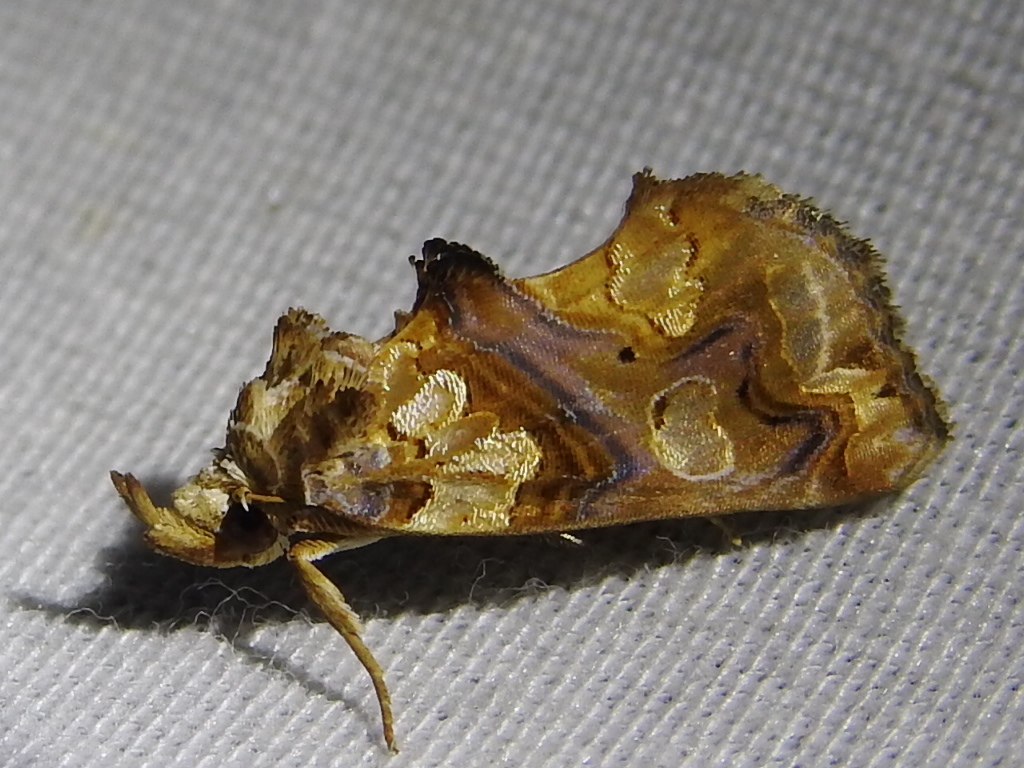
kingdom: Animalia
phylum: Arthropoda
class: Insecta
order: Lepidoptera
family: Erebidae
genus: Plusiodonta
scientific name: Plusiodonta compressipalpis
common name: Moonseed moth
